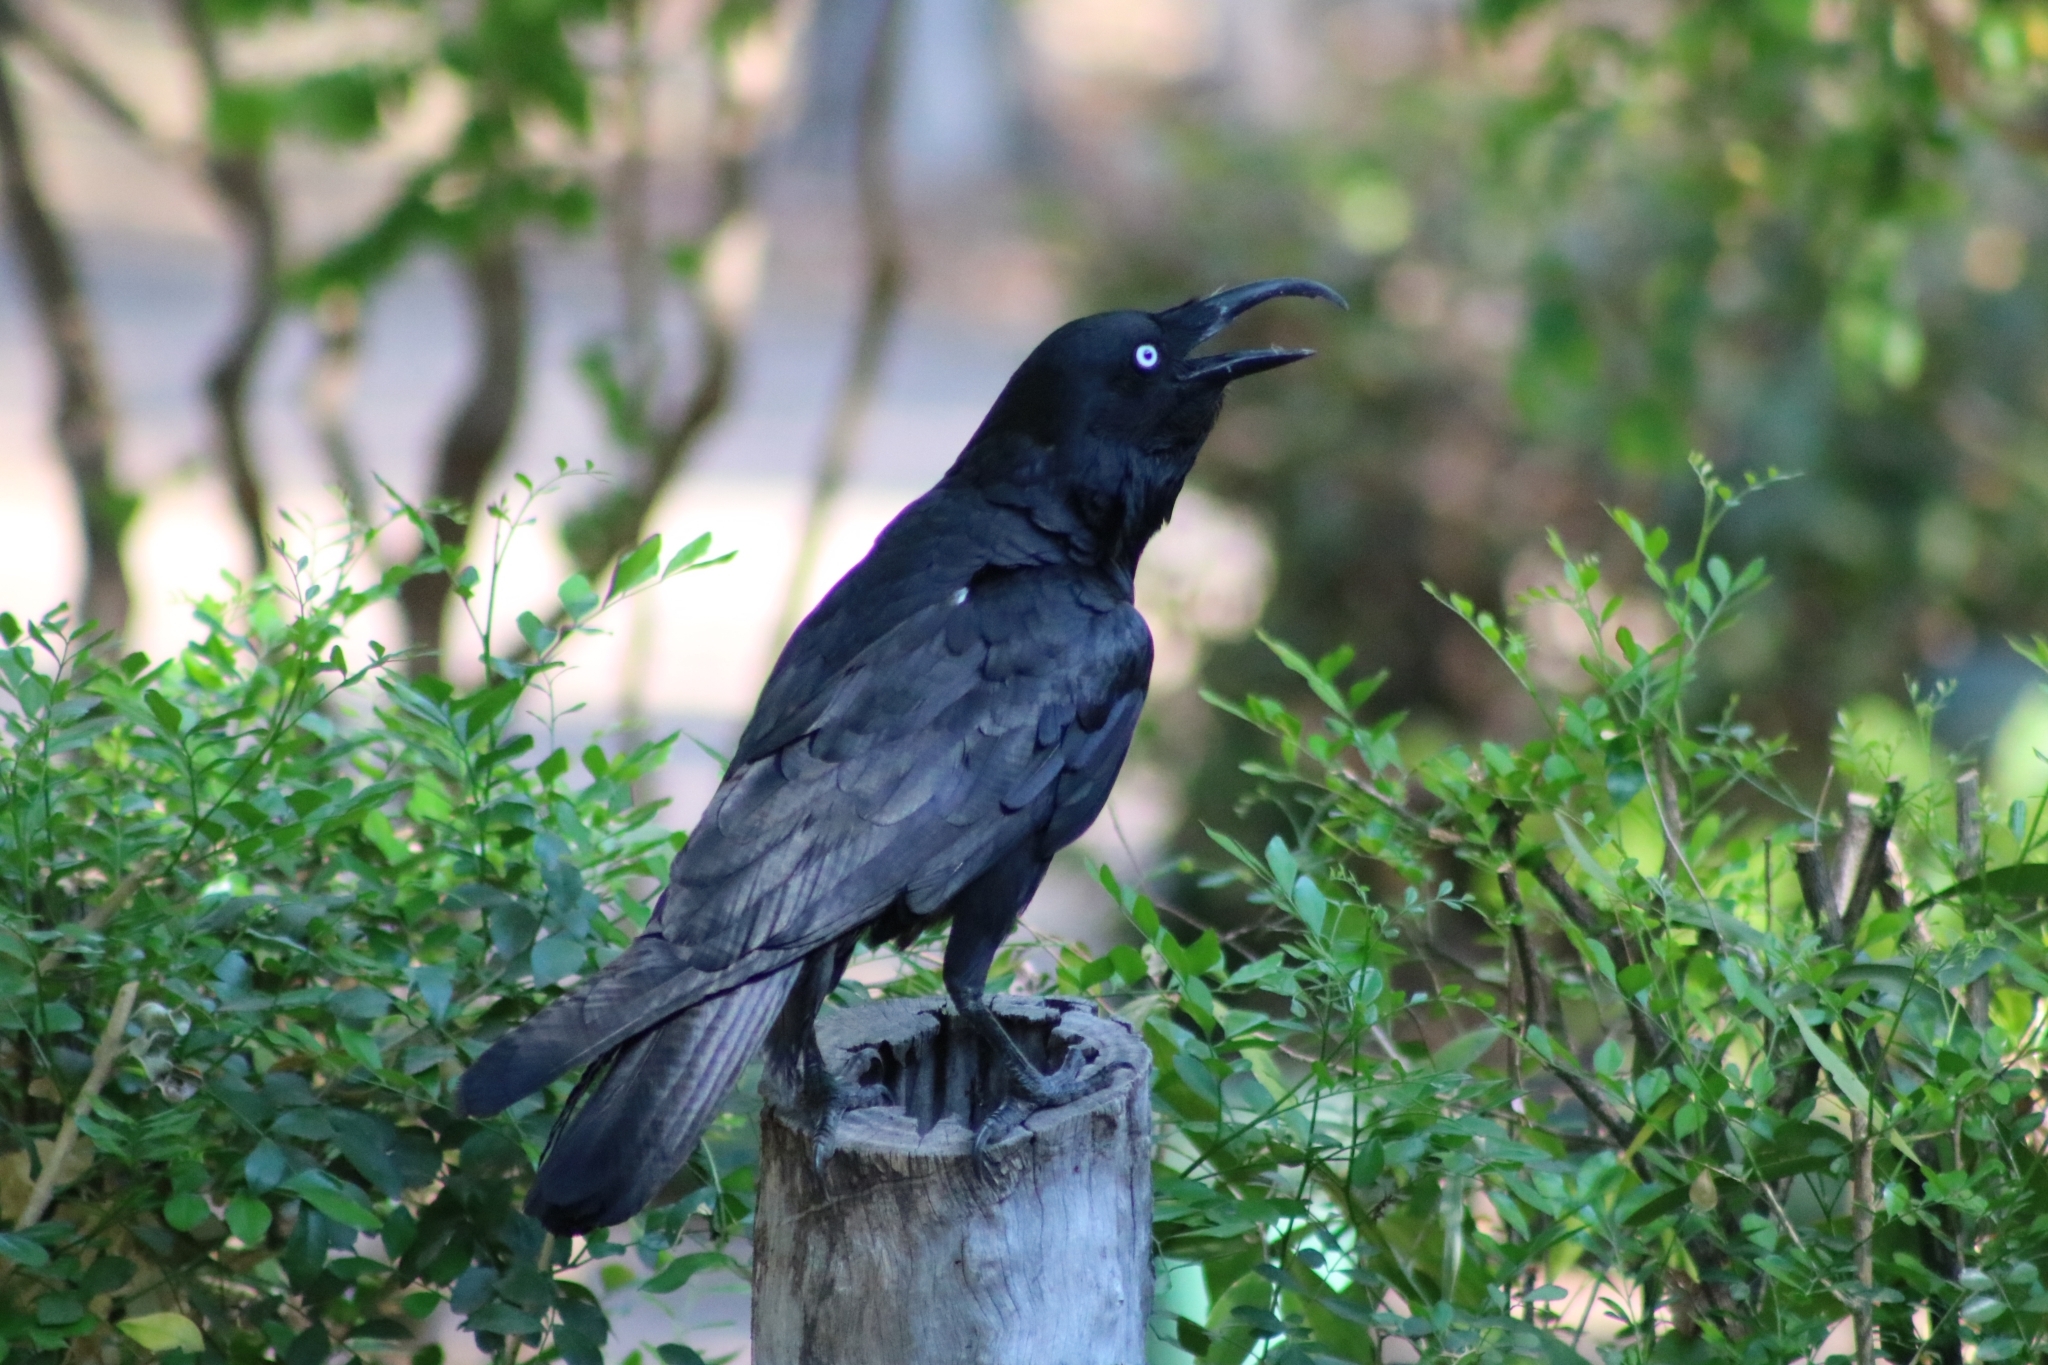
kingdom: Animalia
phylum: Chordata
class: Aves
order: Passeriformes
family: Corvidae
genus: Corvus
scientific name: Corvus orru
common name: Torresian crow
